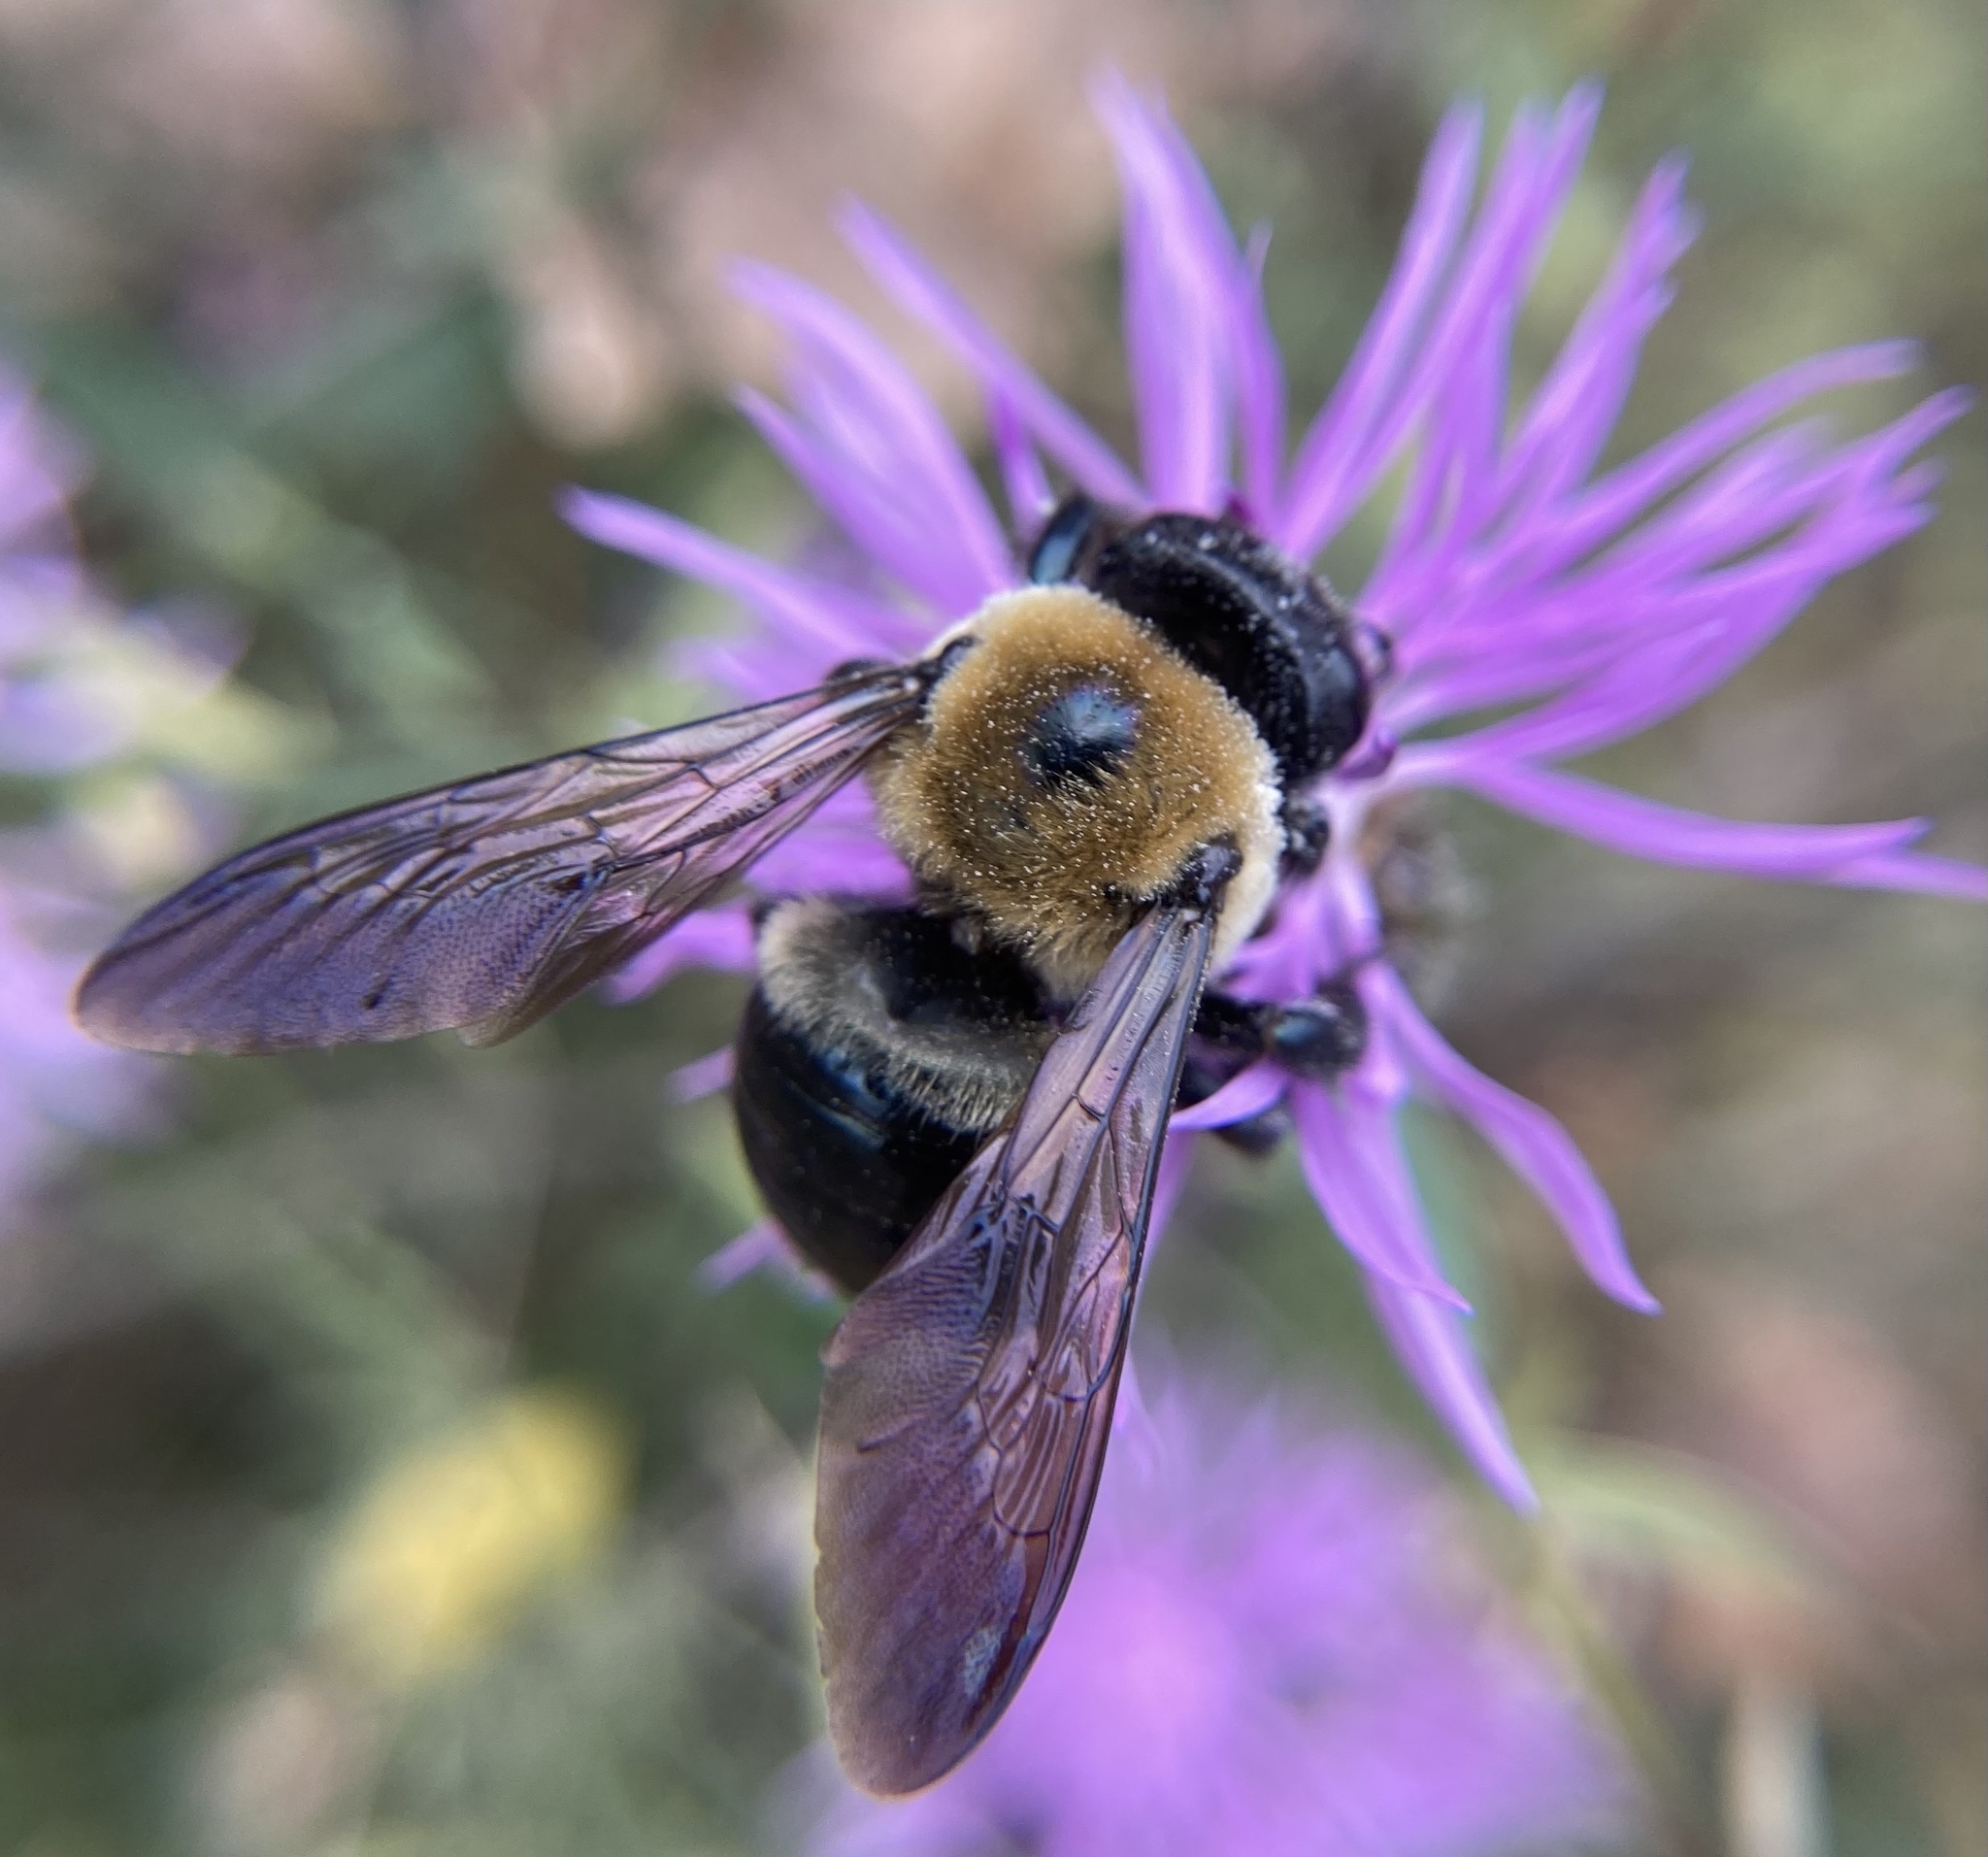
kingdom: Animalia
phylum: Arthropoda
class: Insecta
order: Hymenoptera
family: Apidae
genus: Xylocopa
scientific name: Xylocopa virginica
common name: Carpenter bee
